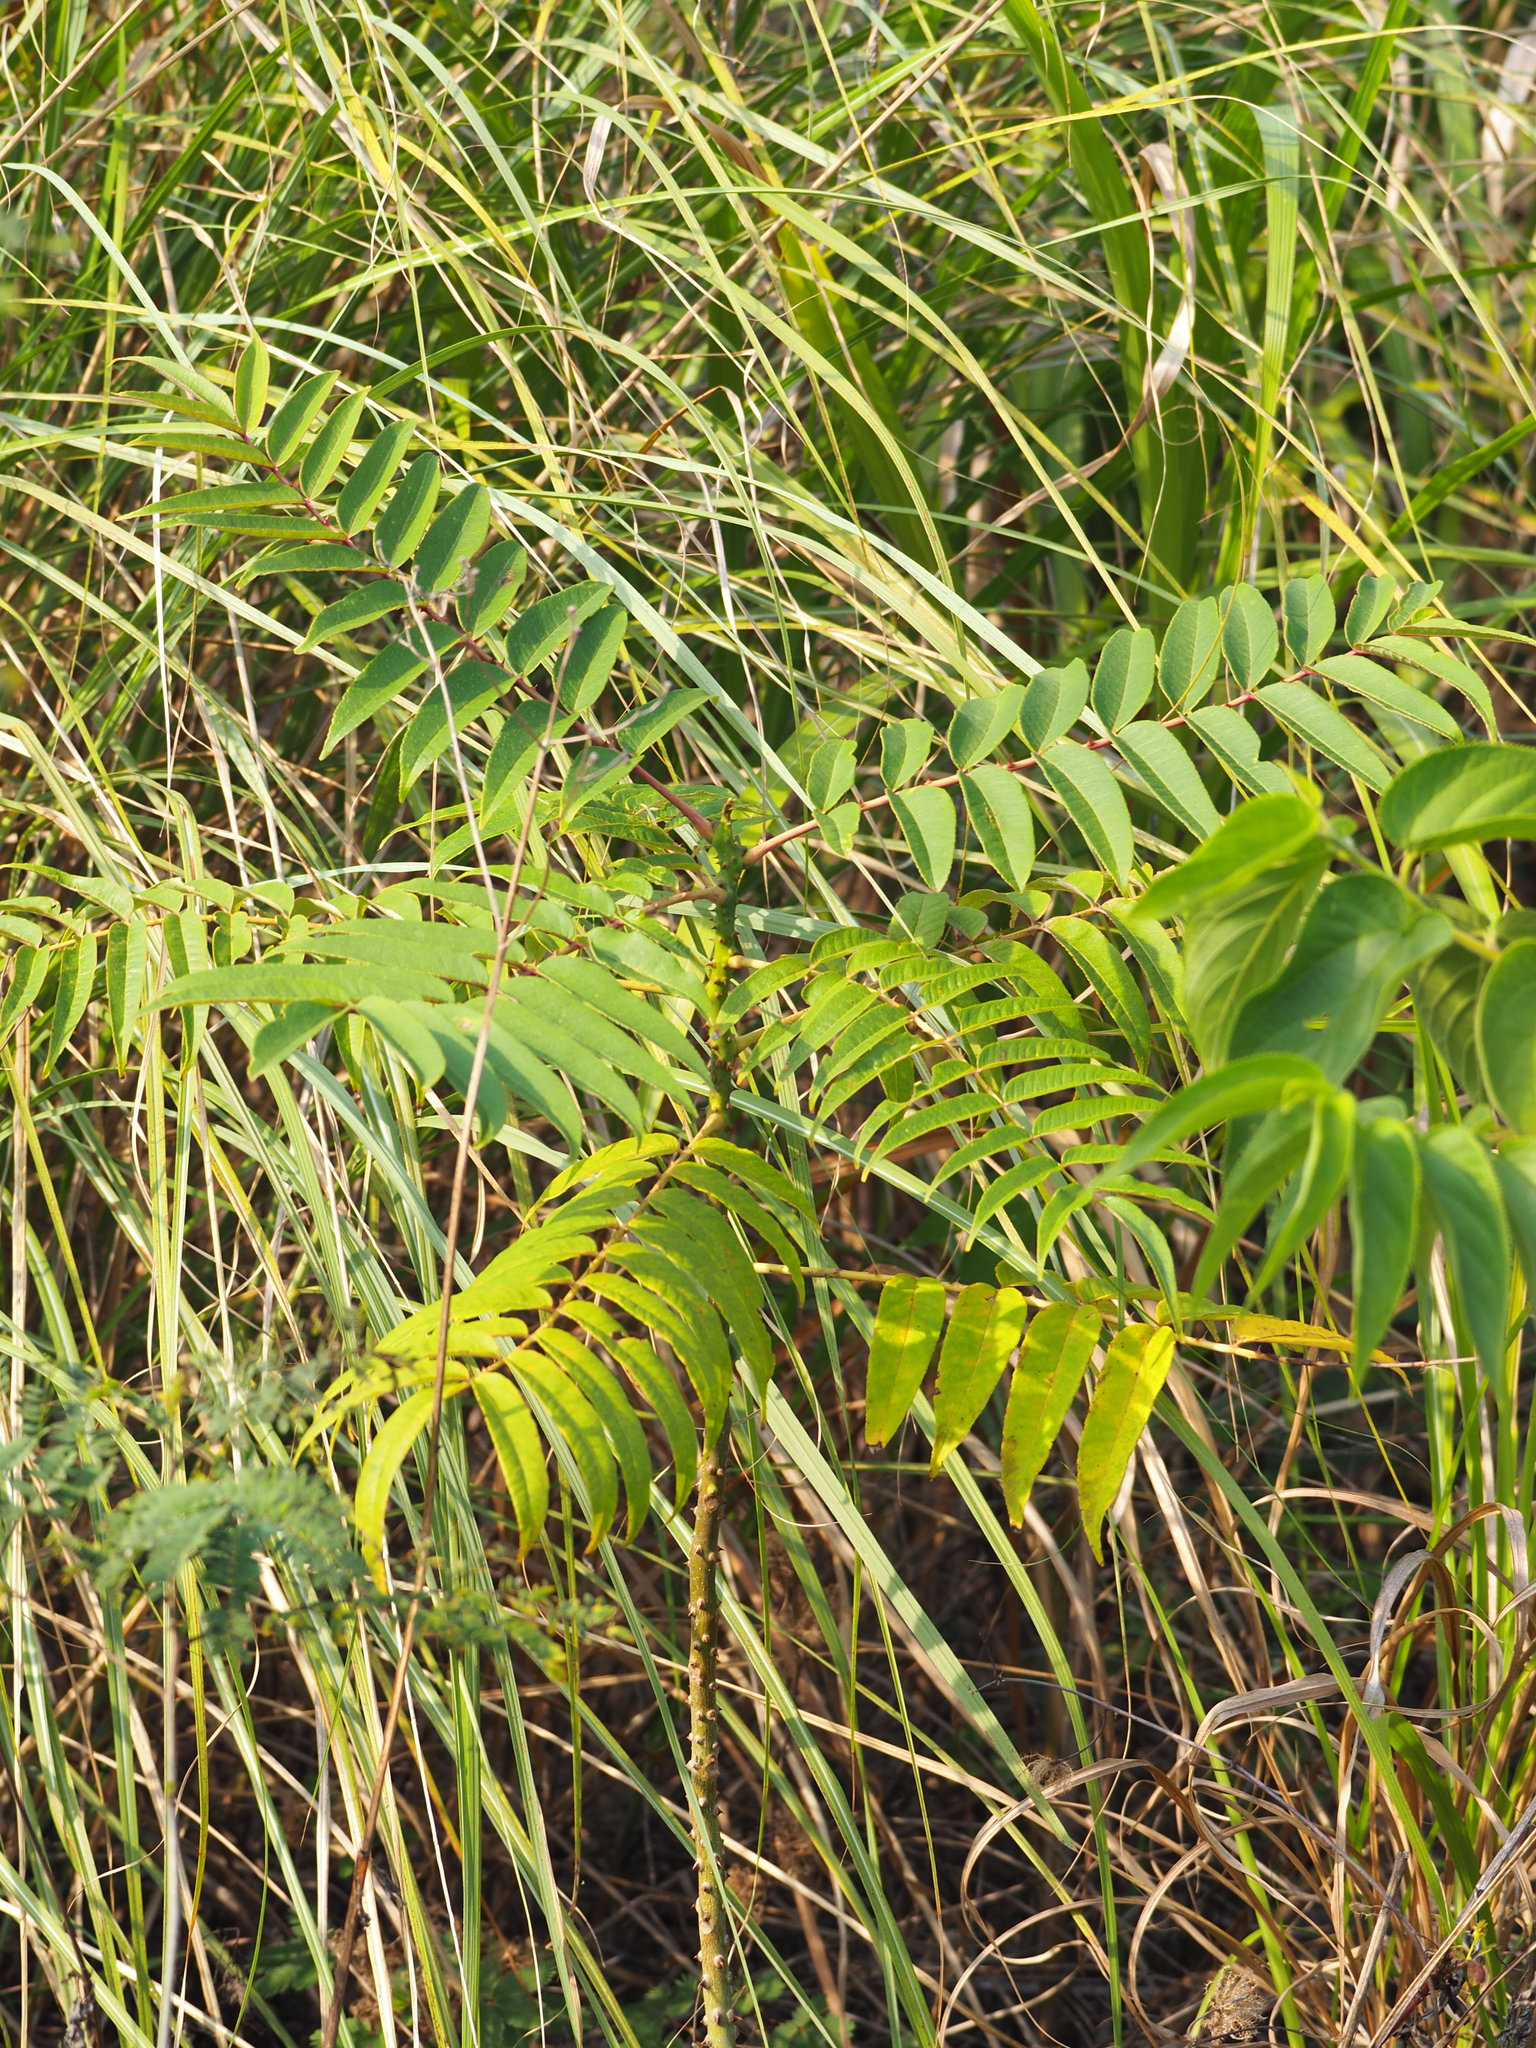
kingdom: Plantae
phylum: Tracheophyta
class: Magnoliopsida
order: Sapindales
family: Rutaceae
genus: Zanthoxylum
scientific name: Zanthoxylum ailanthoides
